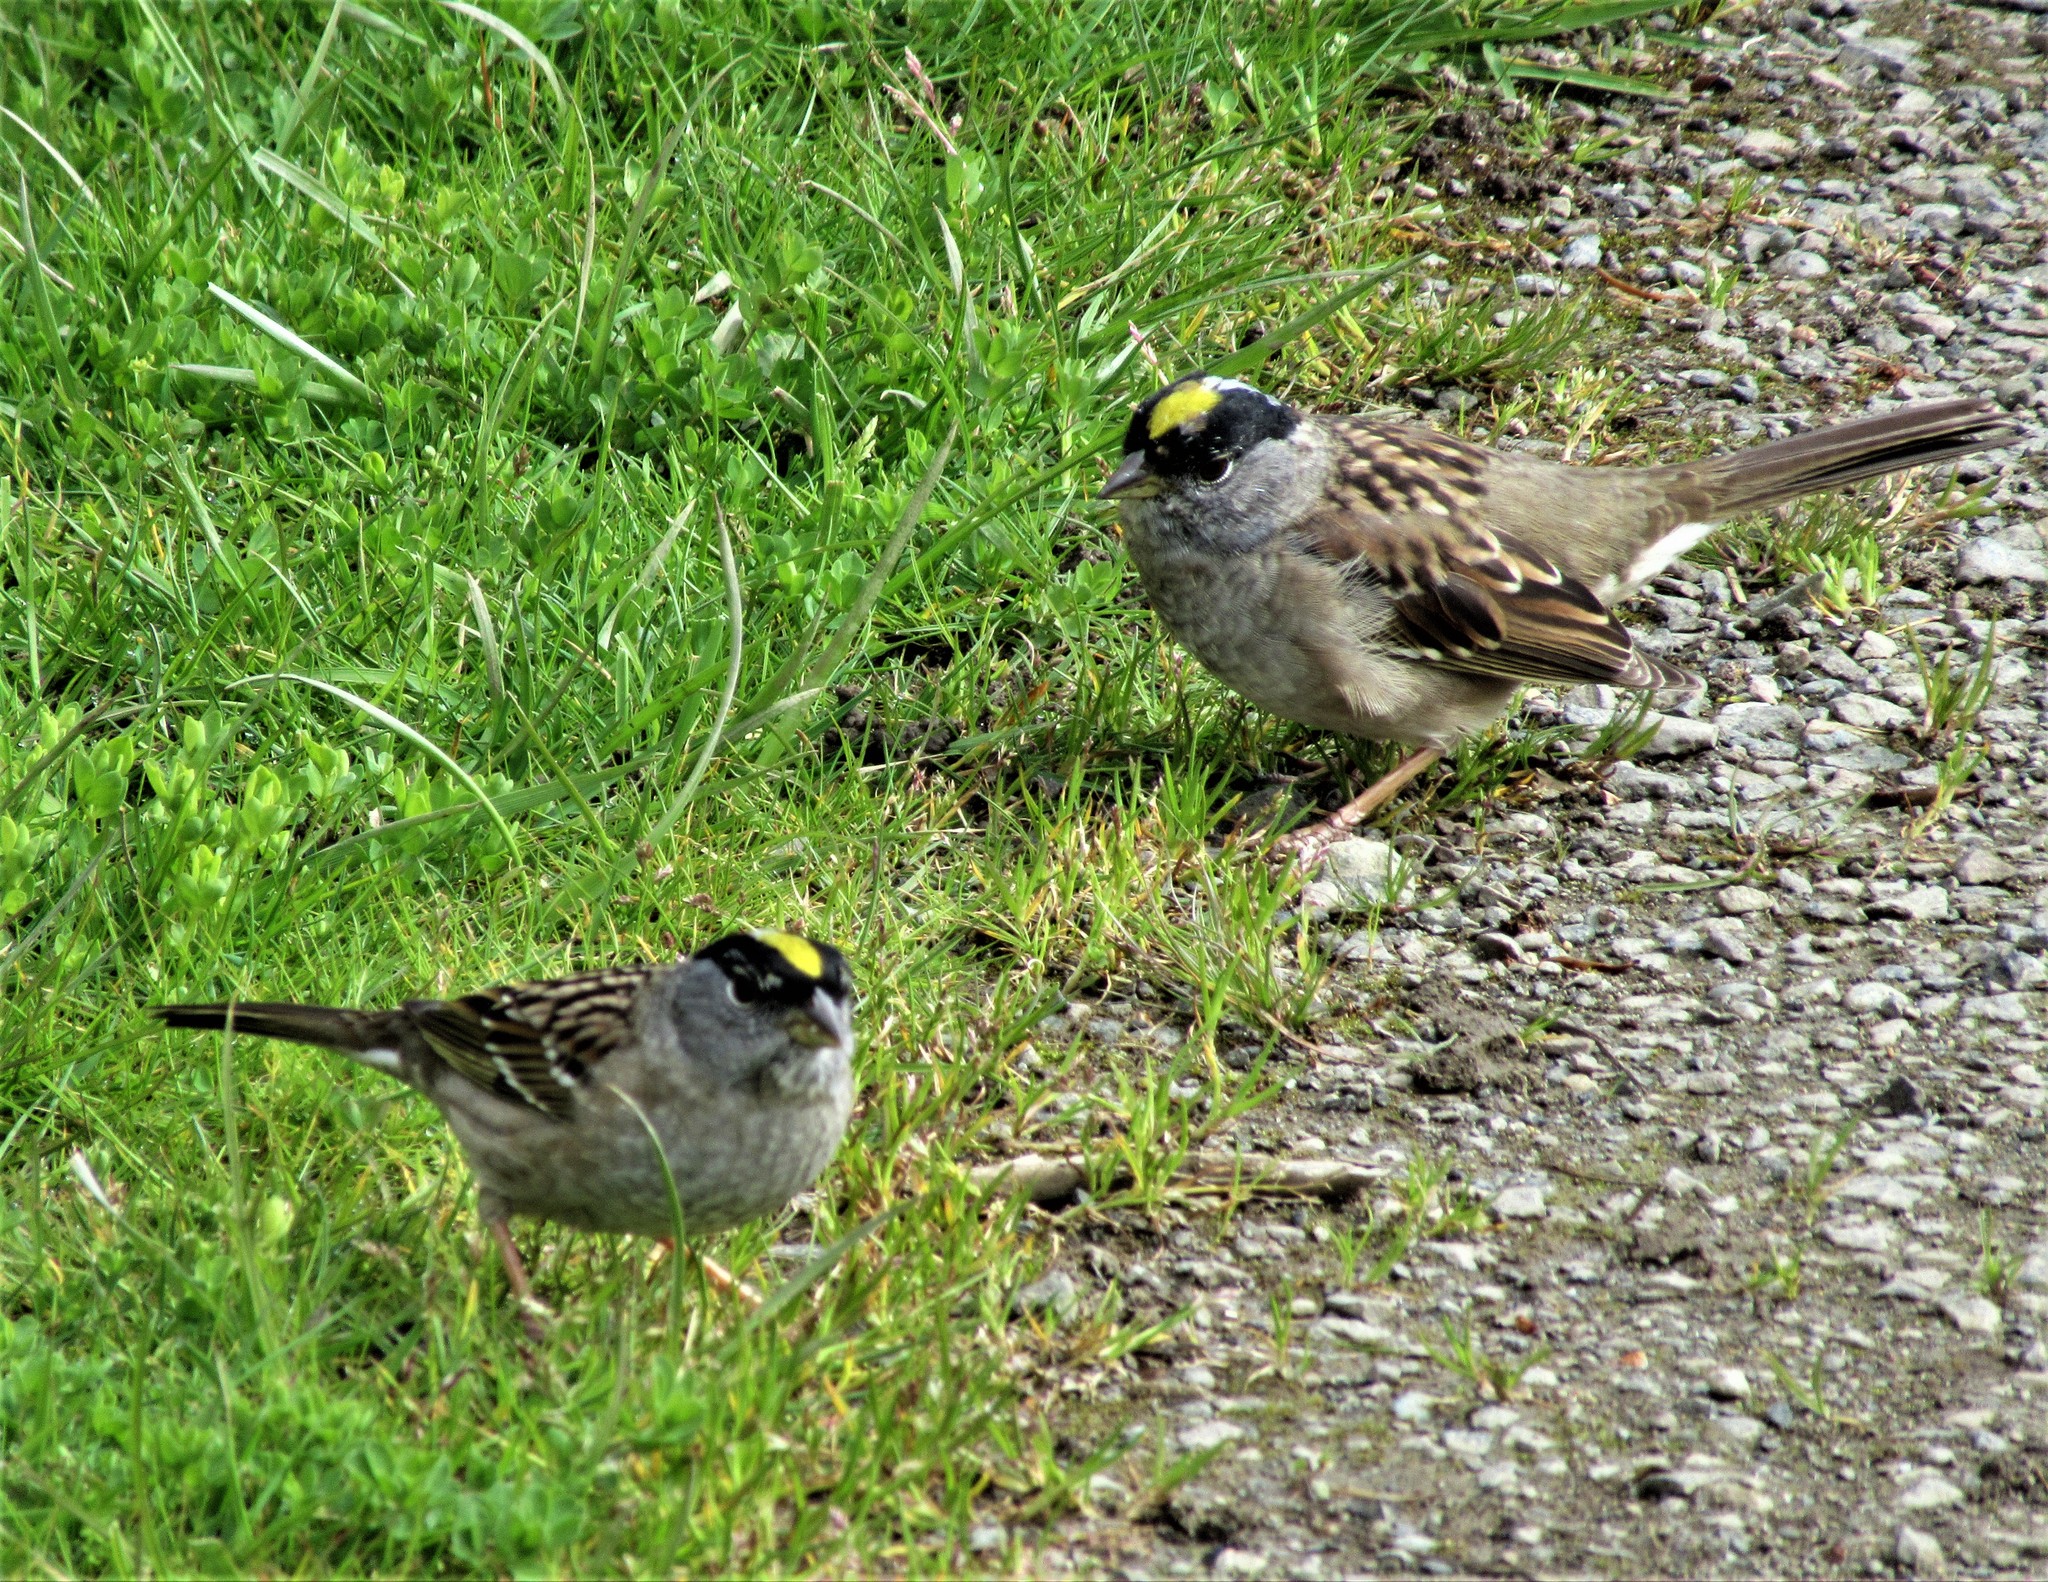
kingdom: Animalia
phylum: Chordata
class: Aves
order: Passeriformes
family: Passerellidae
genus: Zonotrichia
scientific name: Zonotrichia atricapilla
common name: Golden-crowned sparrow
